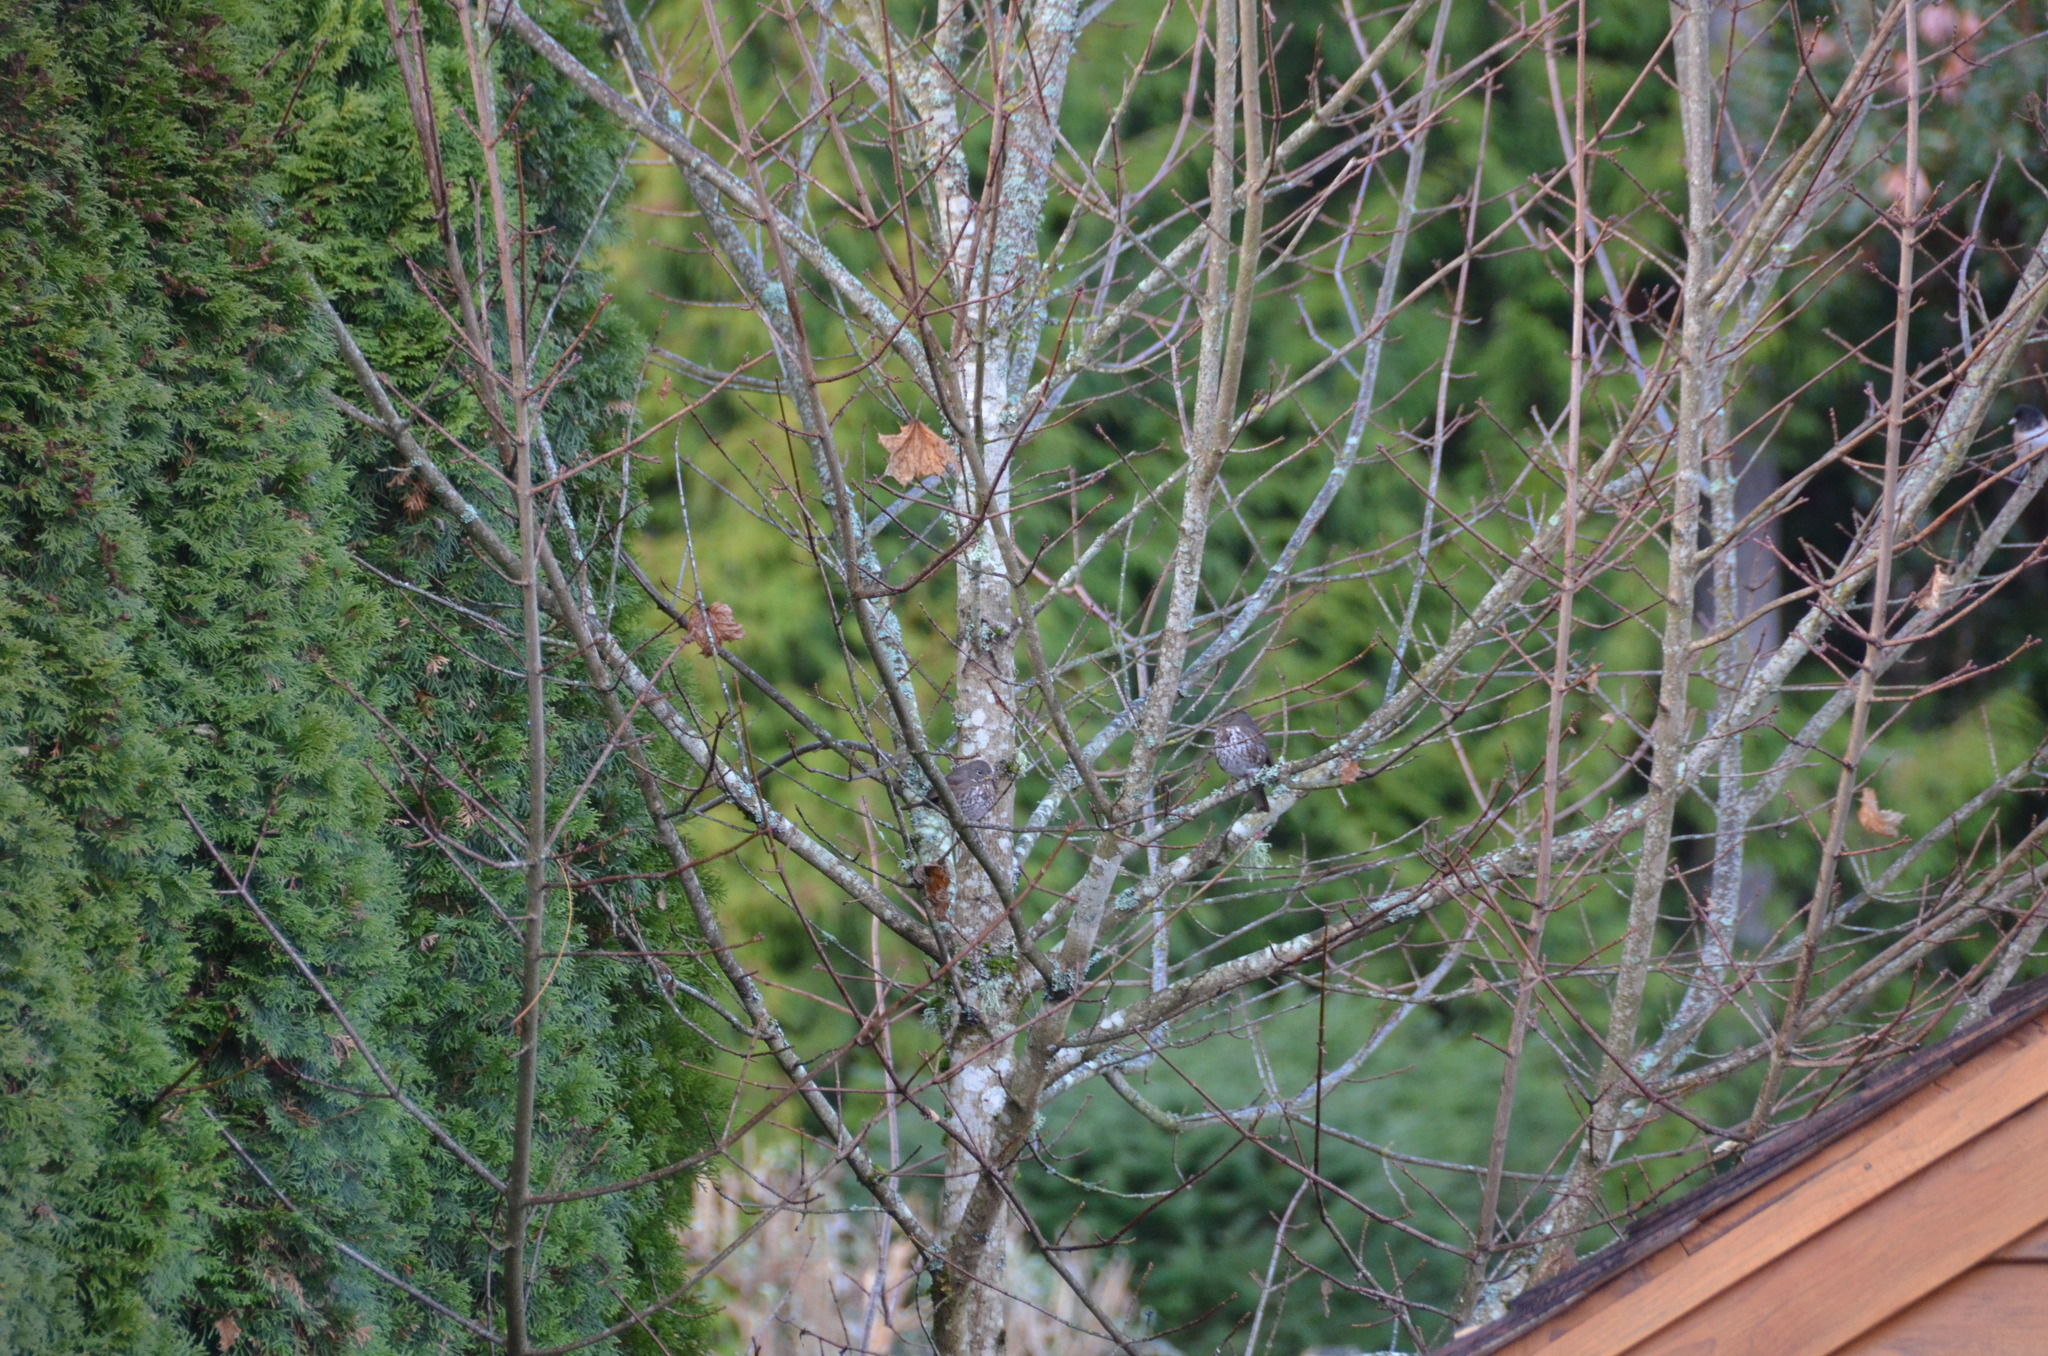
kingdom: Animalia
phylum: Chordata
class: Aves
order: Passeriformes
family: Passerellidae
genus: Passerella
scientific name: Passerella iliaca
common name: Fox sparrow
